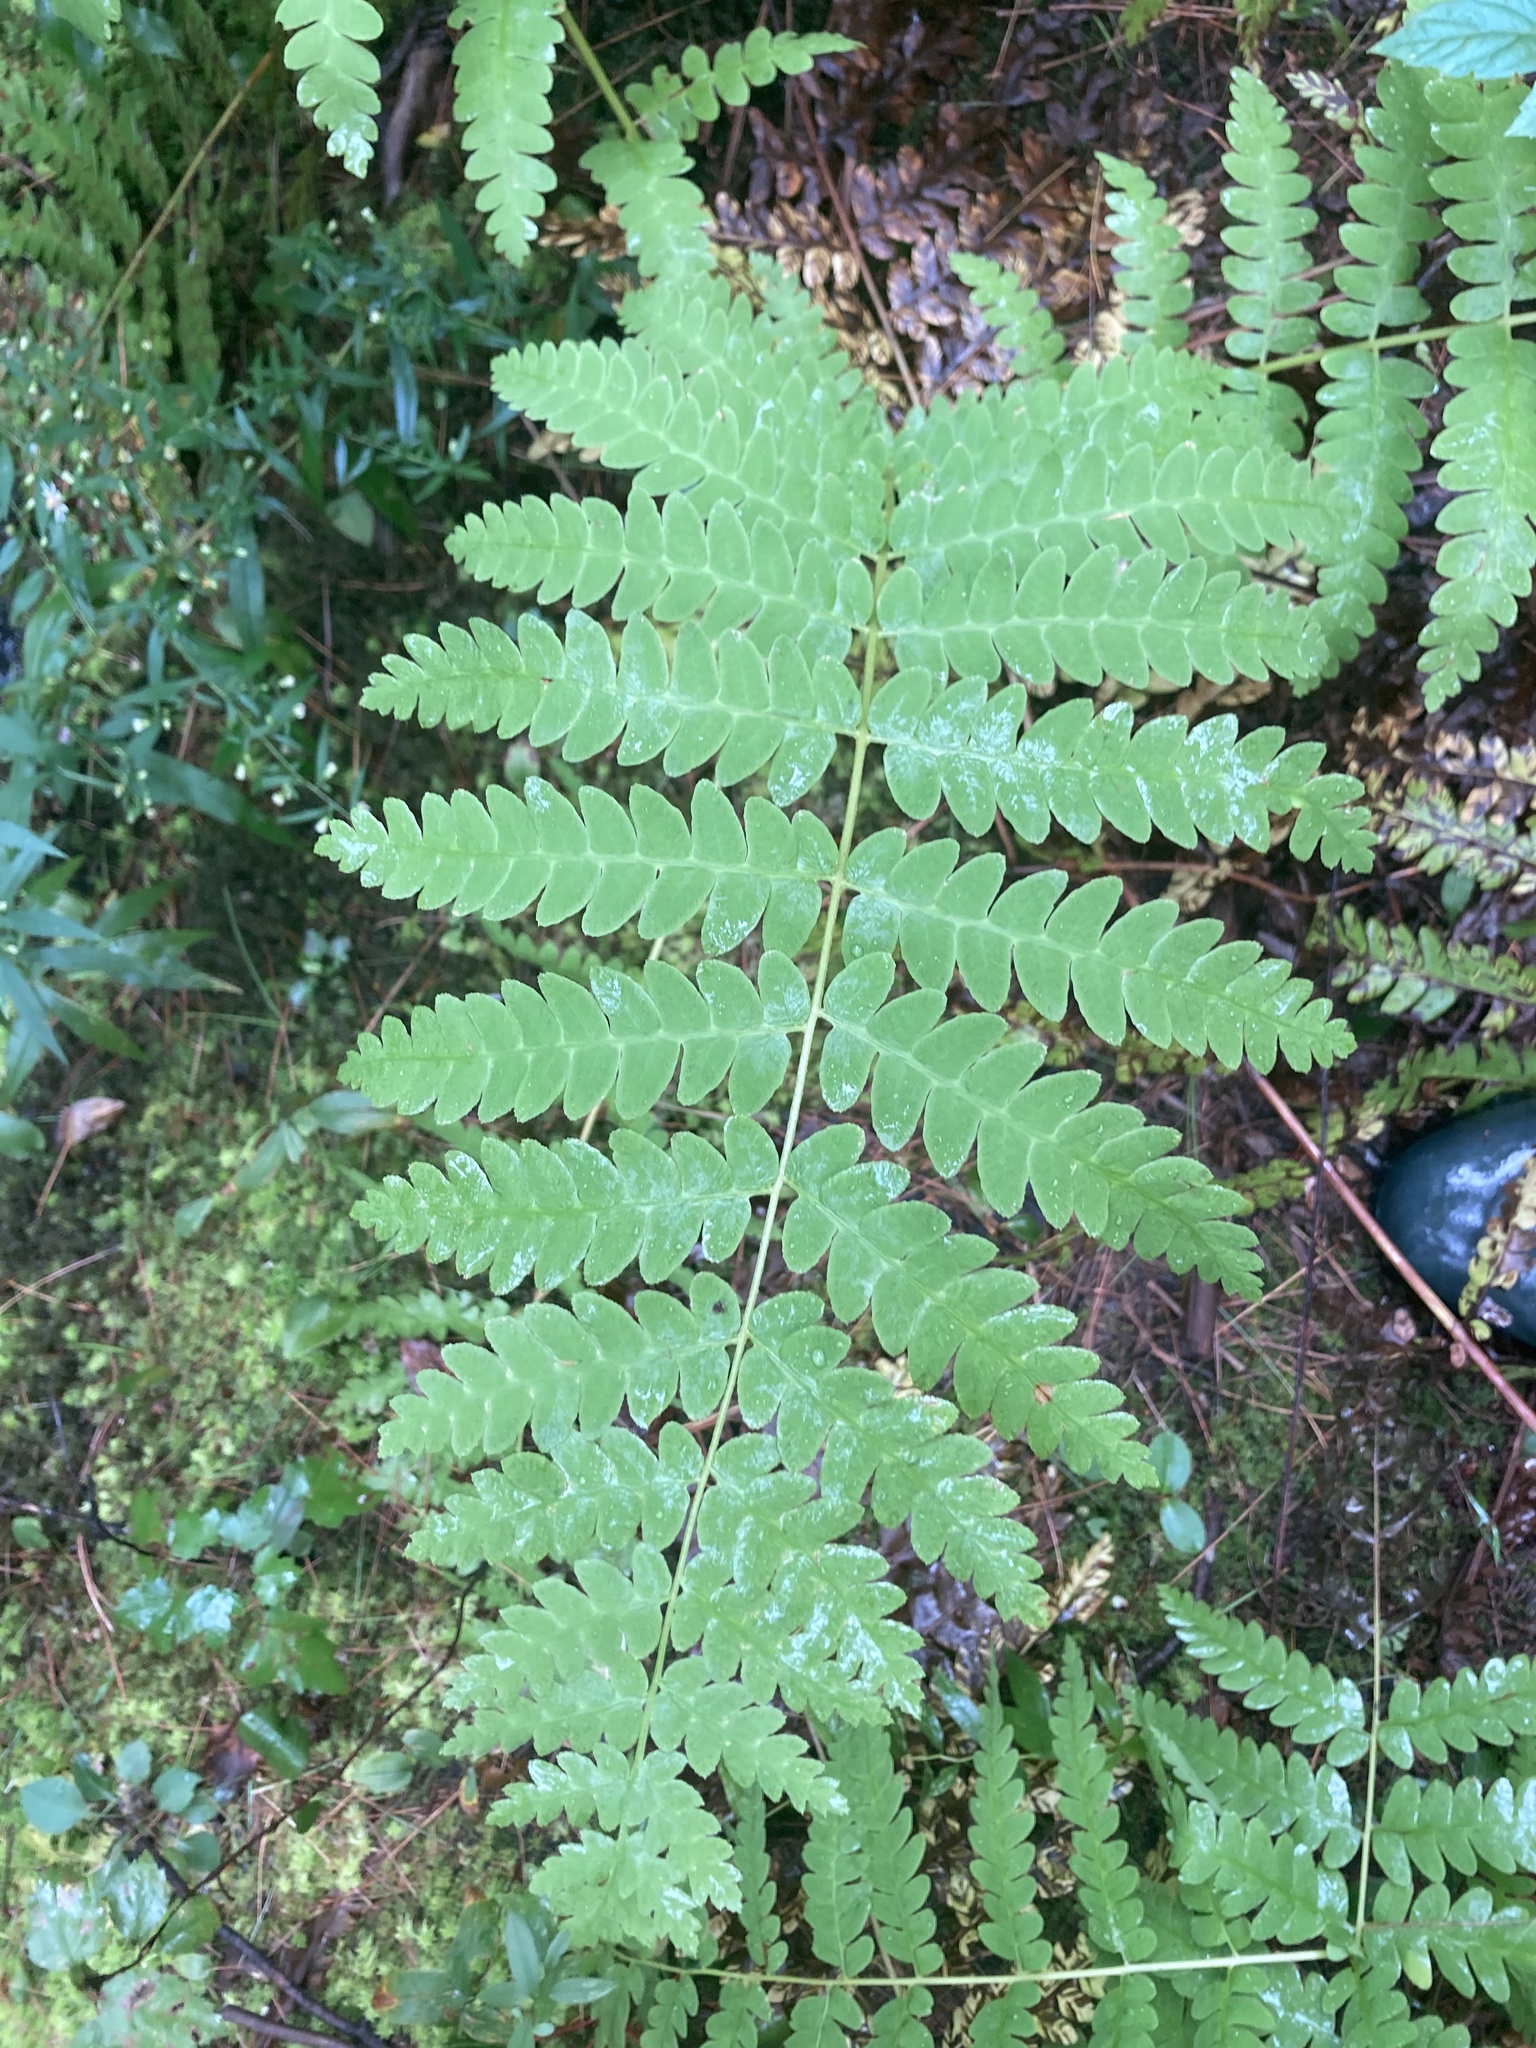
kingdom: Plantae
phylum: Tracheophyta
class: Polypodiopsida
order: Osmundales
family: Osmundaceae
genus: Claytosmunda
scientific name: Claytosmunda claytoniana
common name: Clayton's fern
